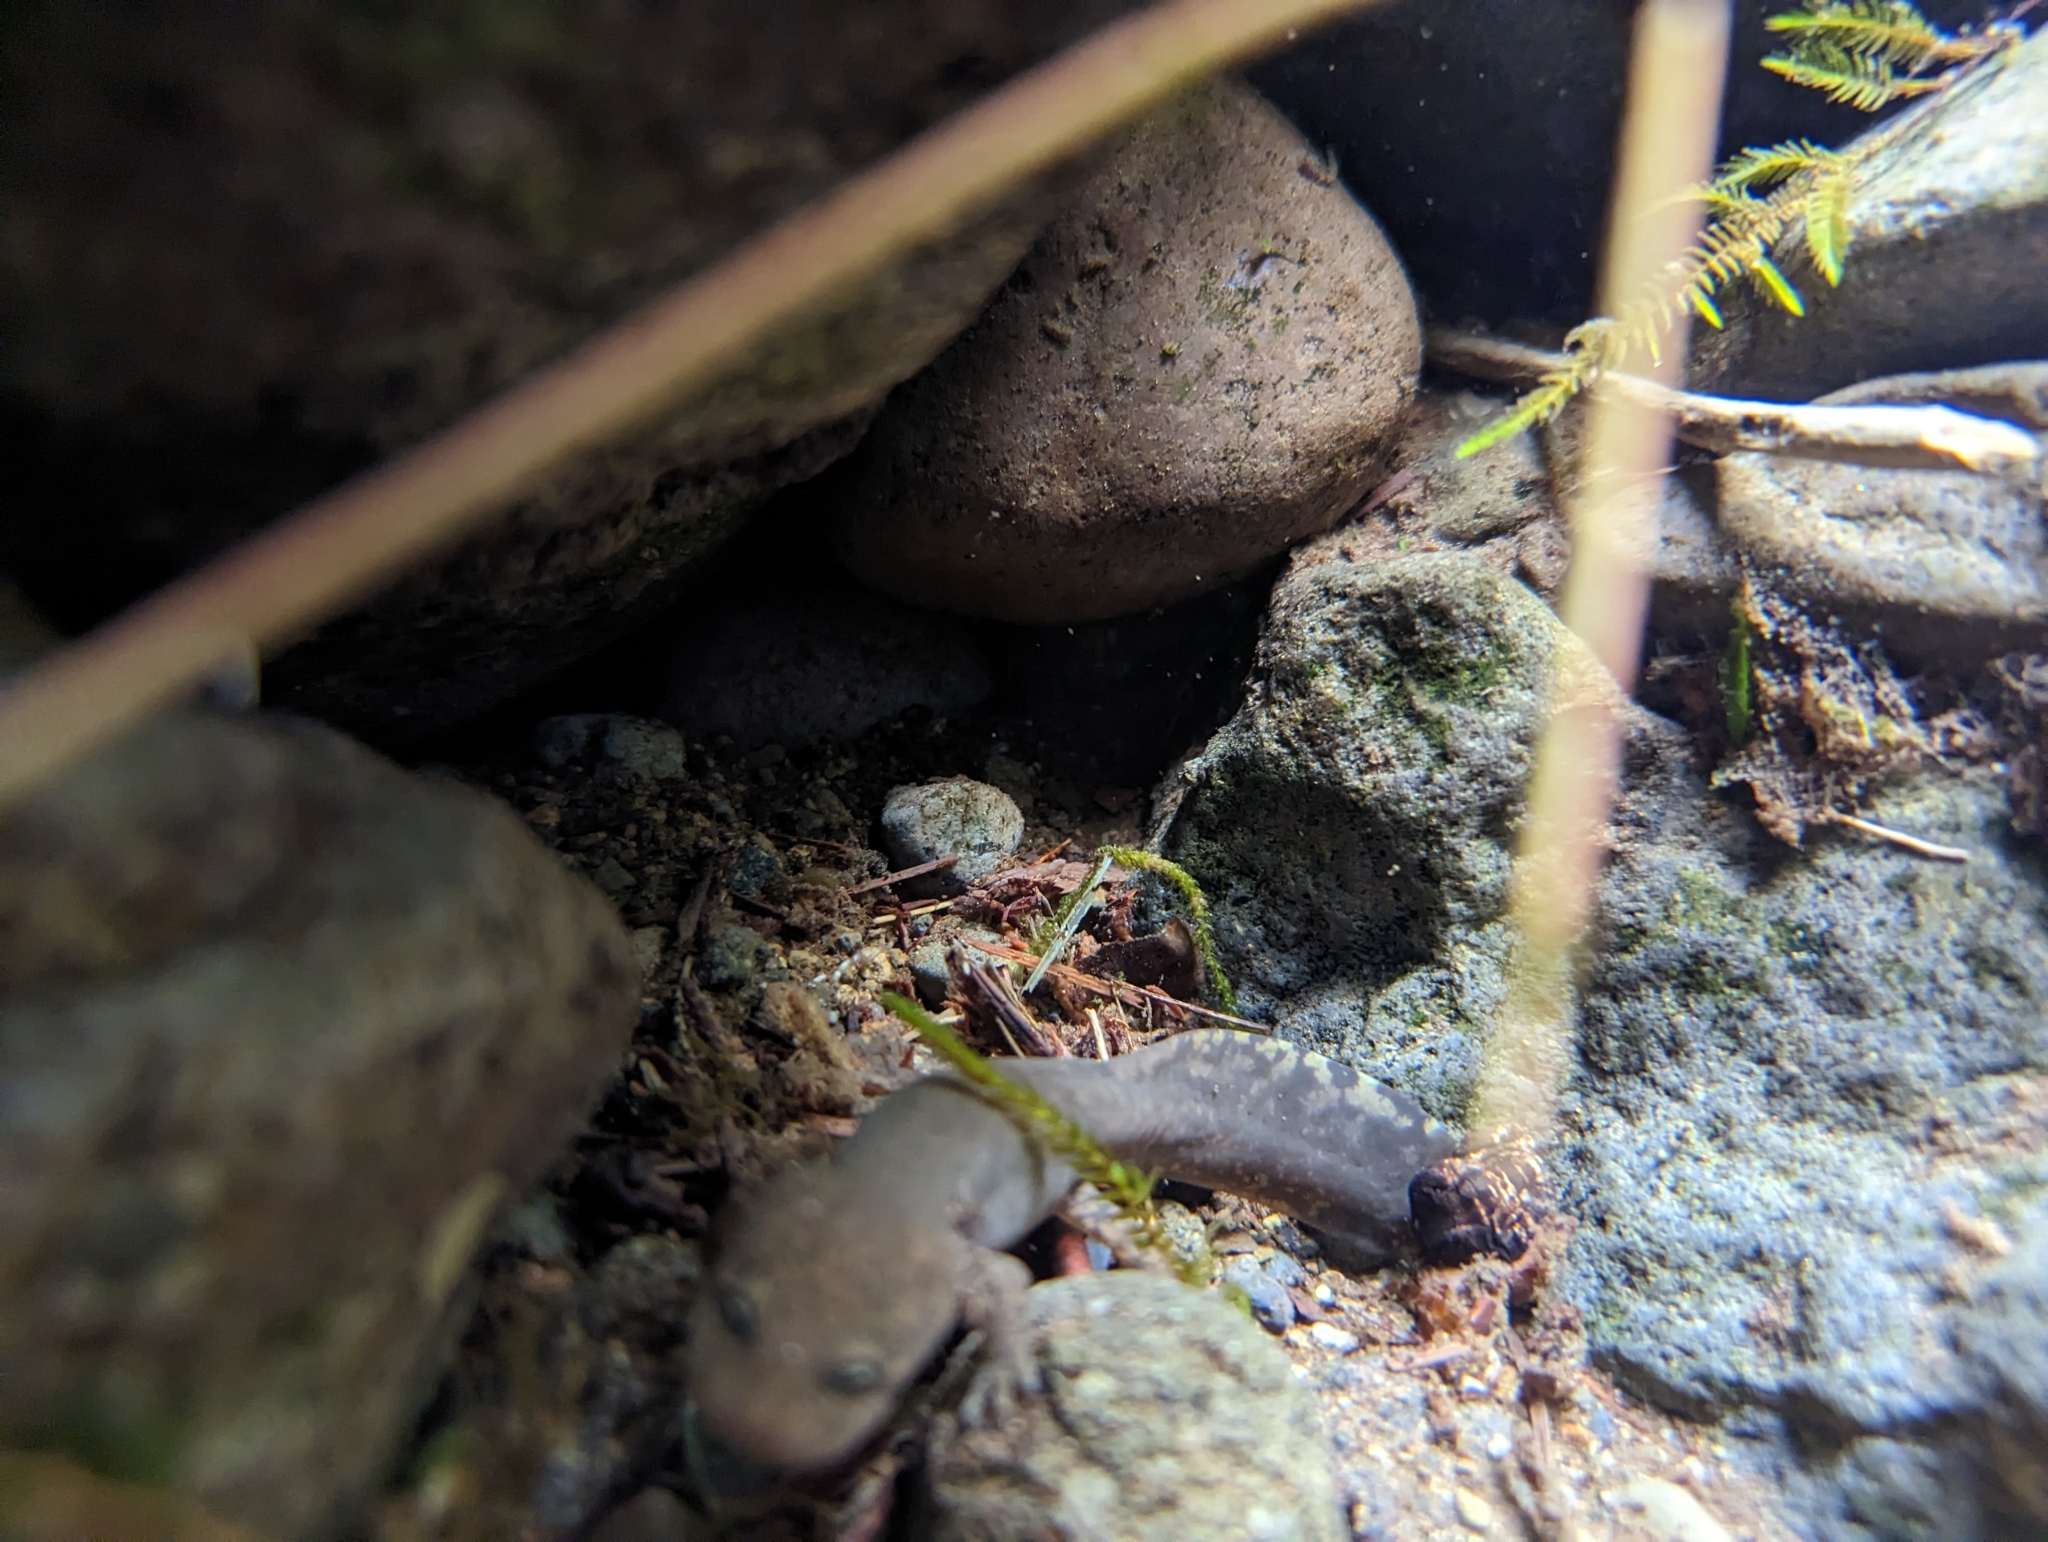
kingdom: Animalia
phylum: Chordata
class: Amphibia
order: Caudata
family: Ambystomatidae
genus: Dicamptodon
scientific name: Dicamptodon tenebrosus
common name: Coastal giant salamander
